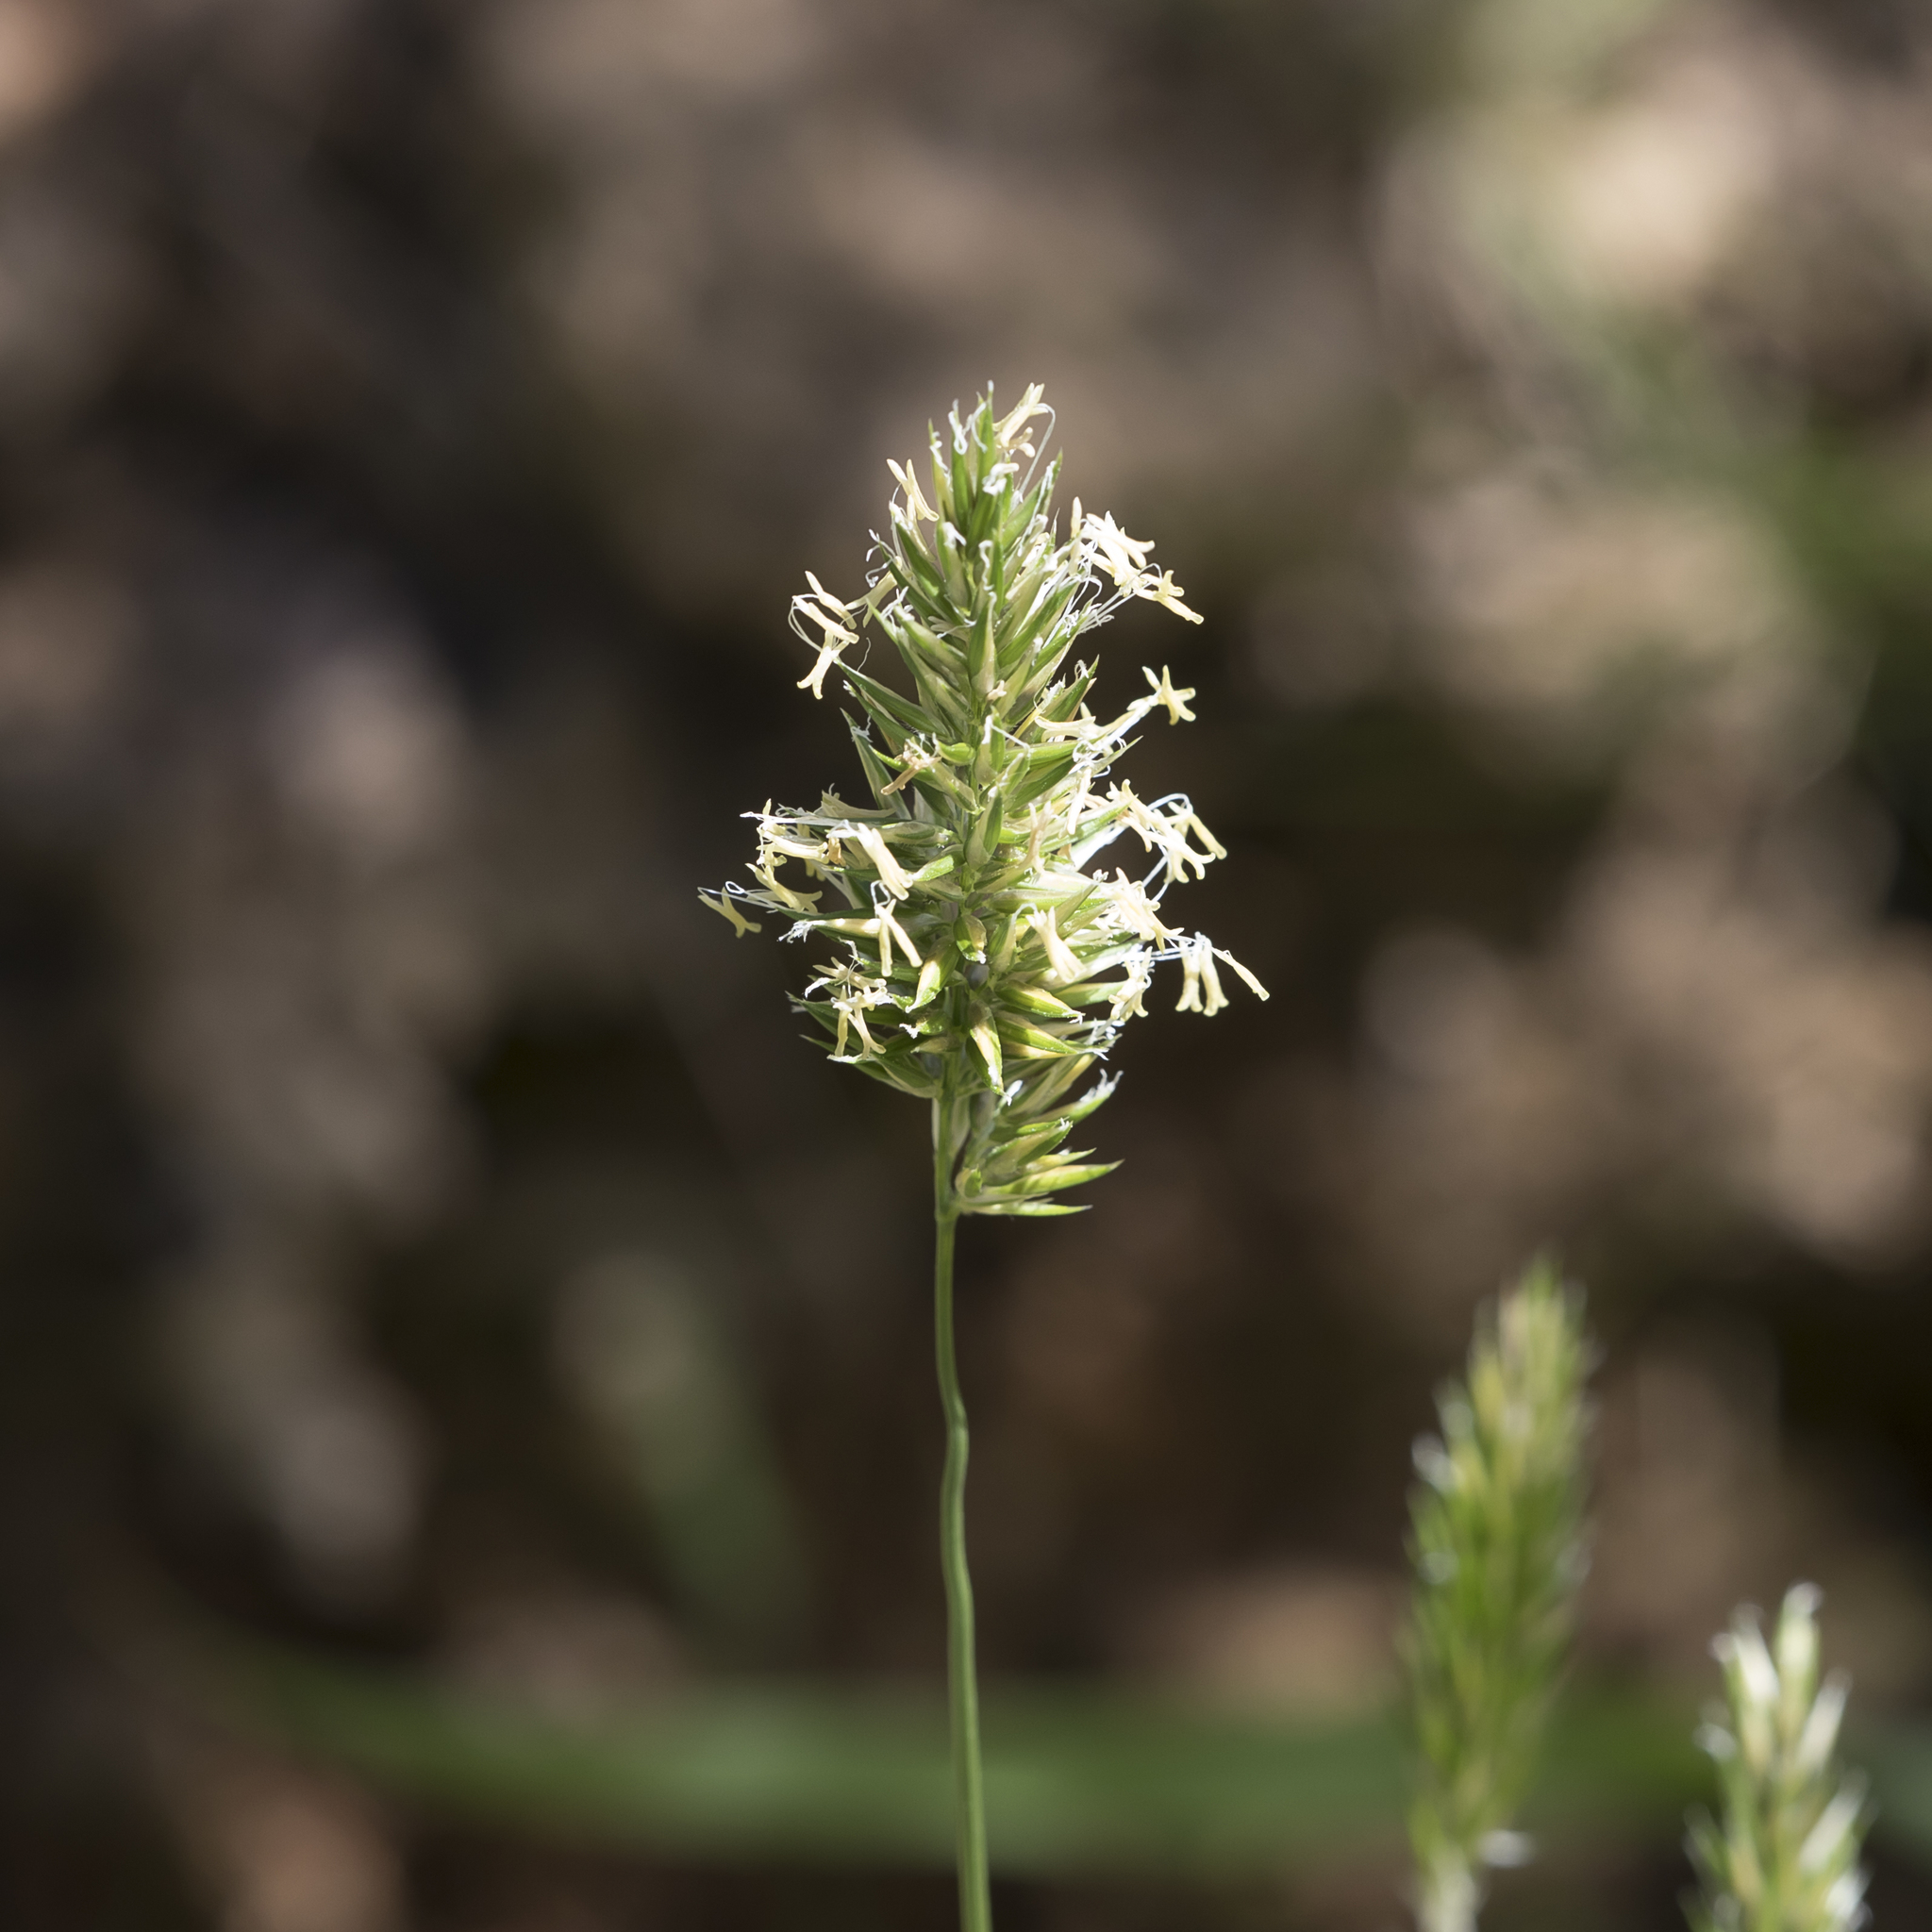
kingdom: Plantae
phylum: Tracheophyta
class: Liliopsida
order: Poales
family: Poaceae
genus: Anthoxanthum
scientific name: Anthoxanthum odoratum
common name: Sweet vernalgrass
